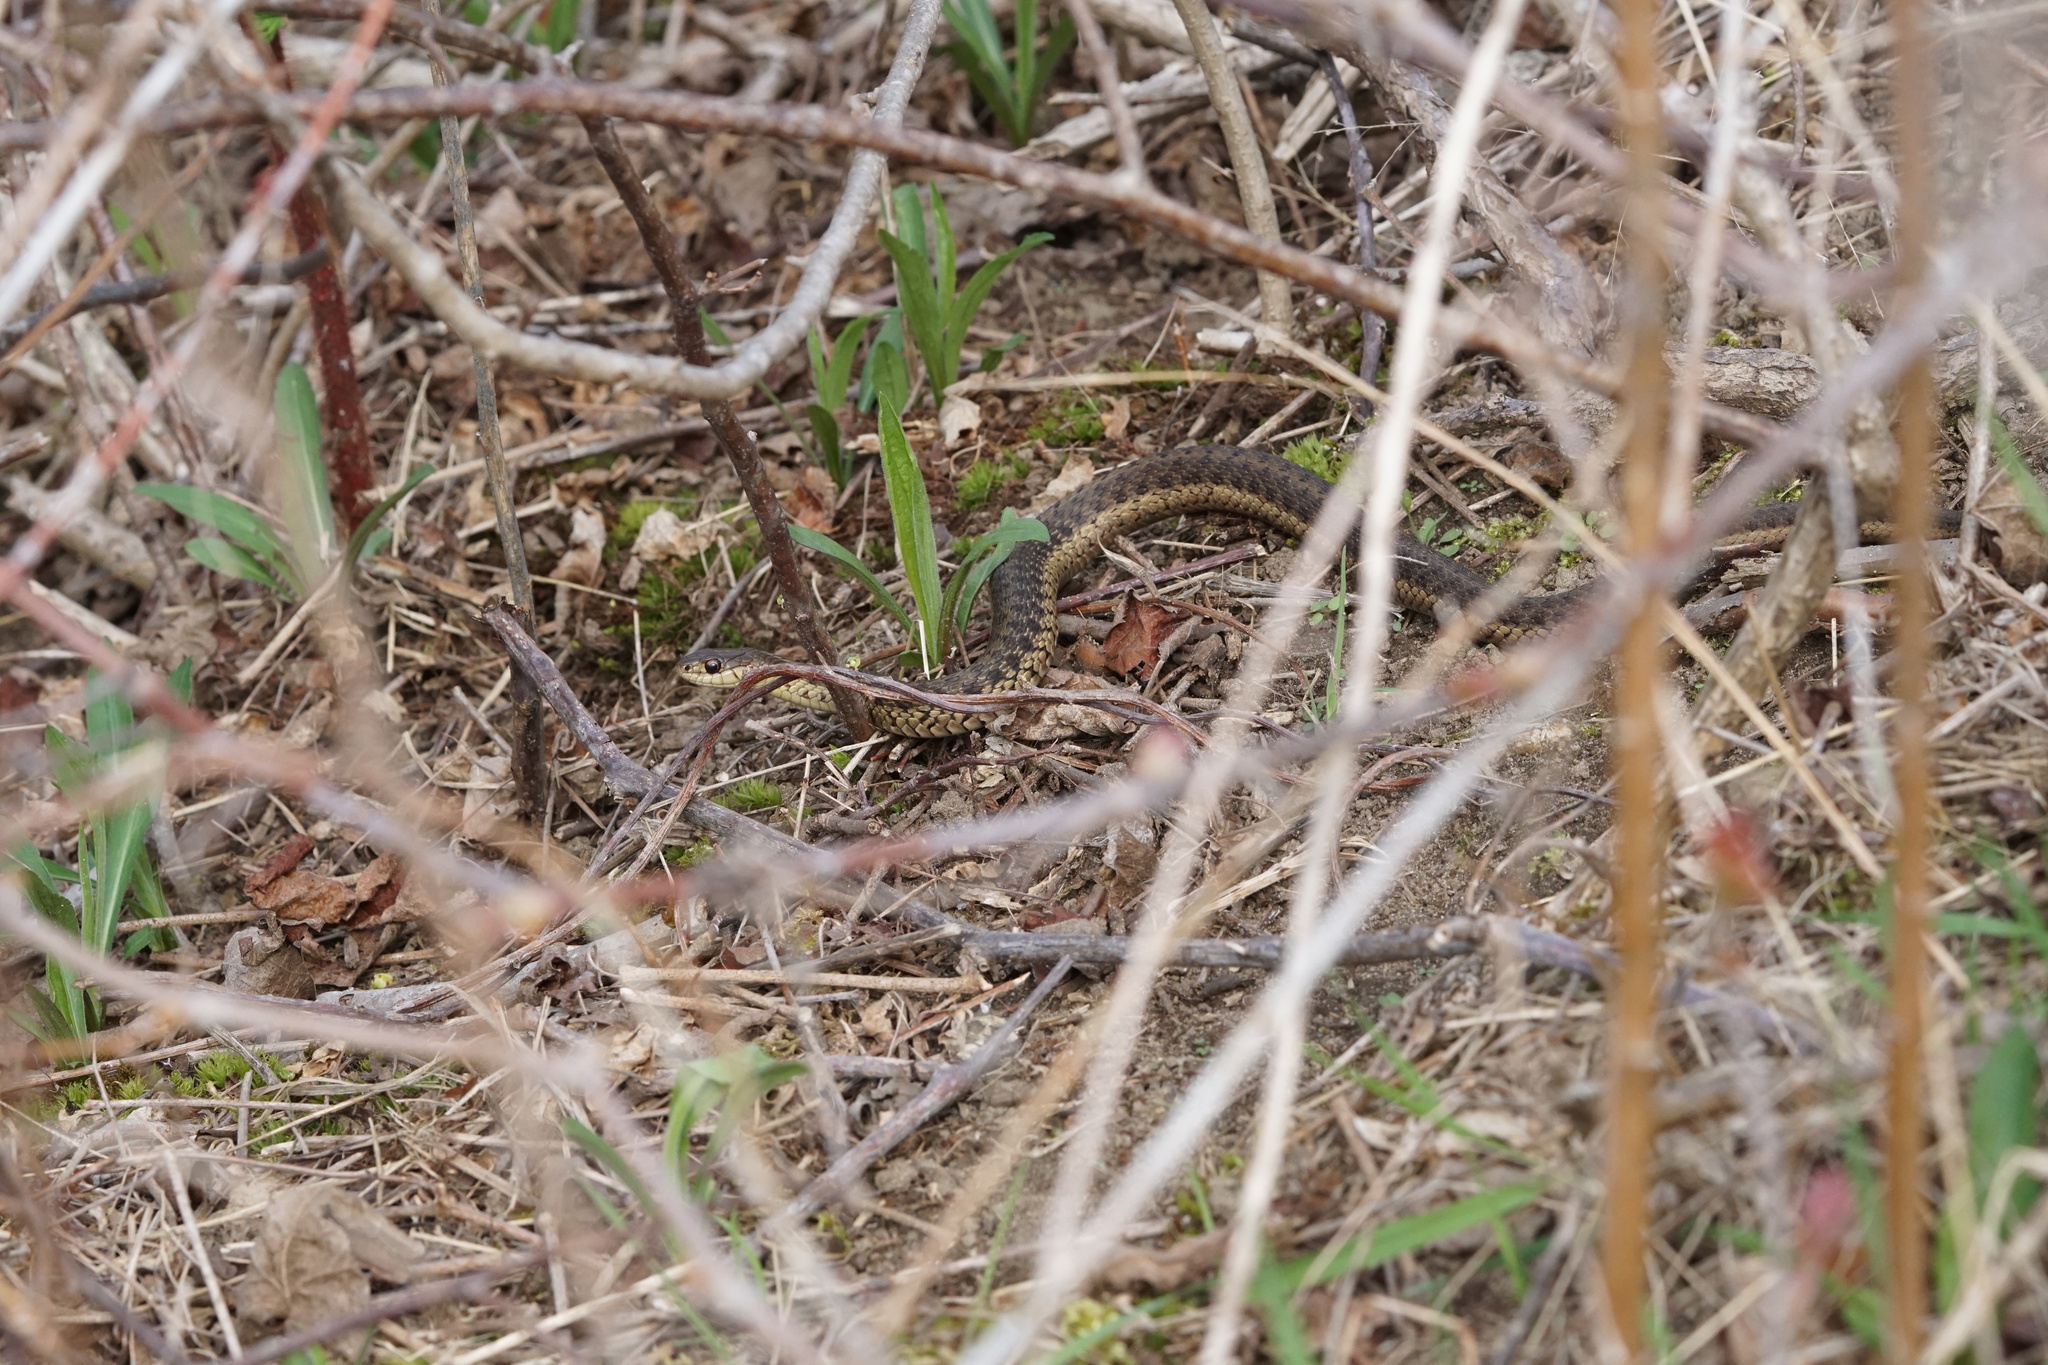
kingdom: Animalia
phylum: Chordata
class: Squamata
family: Colubridae
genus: Thamnophis
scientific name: Thamnophis sirtalis
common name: Common garter snake
